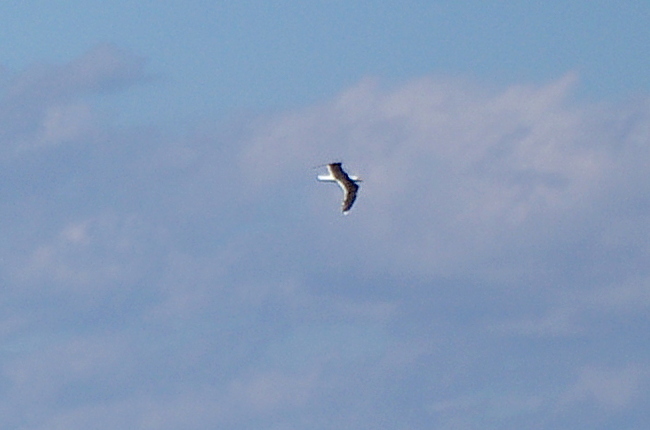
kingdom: Animalia
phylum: Chordata
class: Aves
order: Charadriiformes
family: Laridae
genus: Larus
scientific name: Larus marinus
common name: Great black-backed gull
